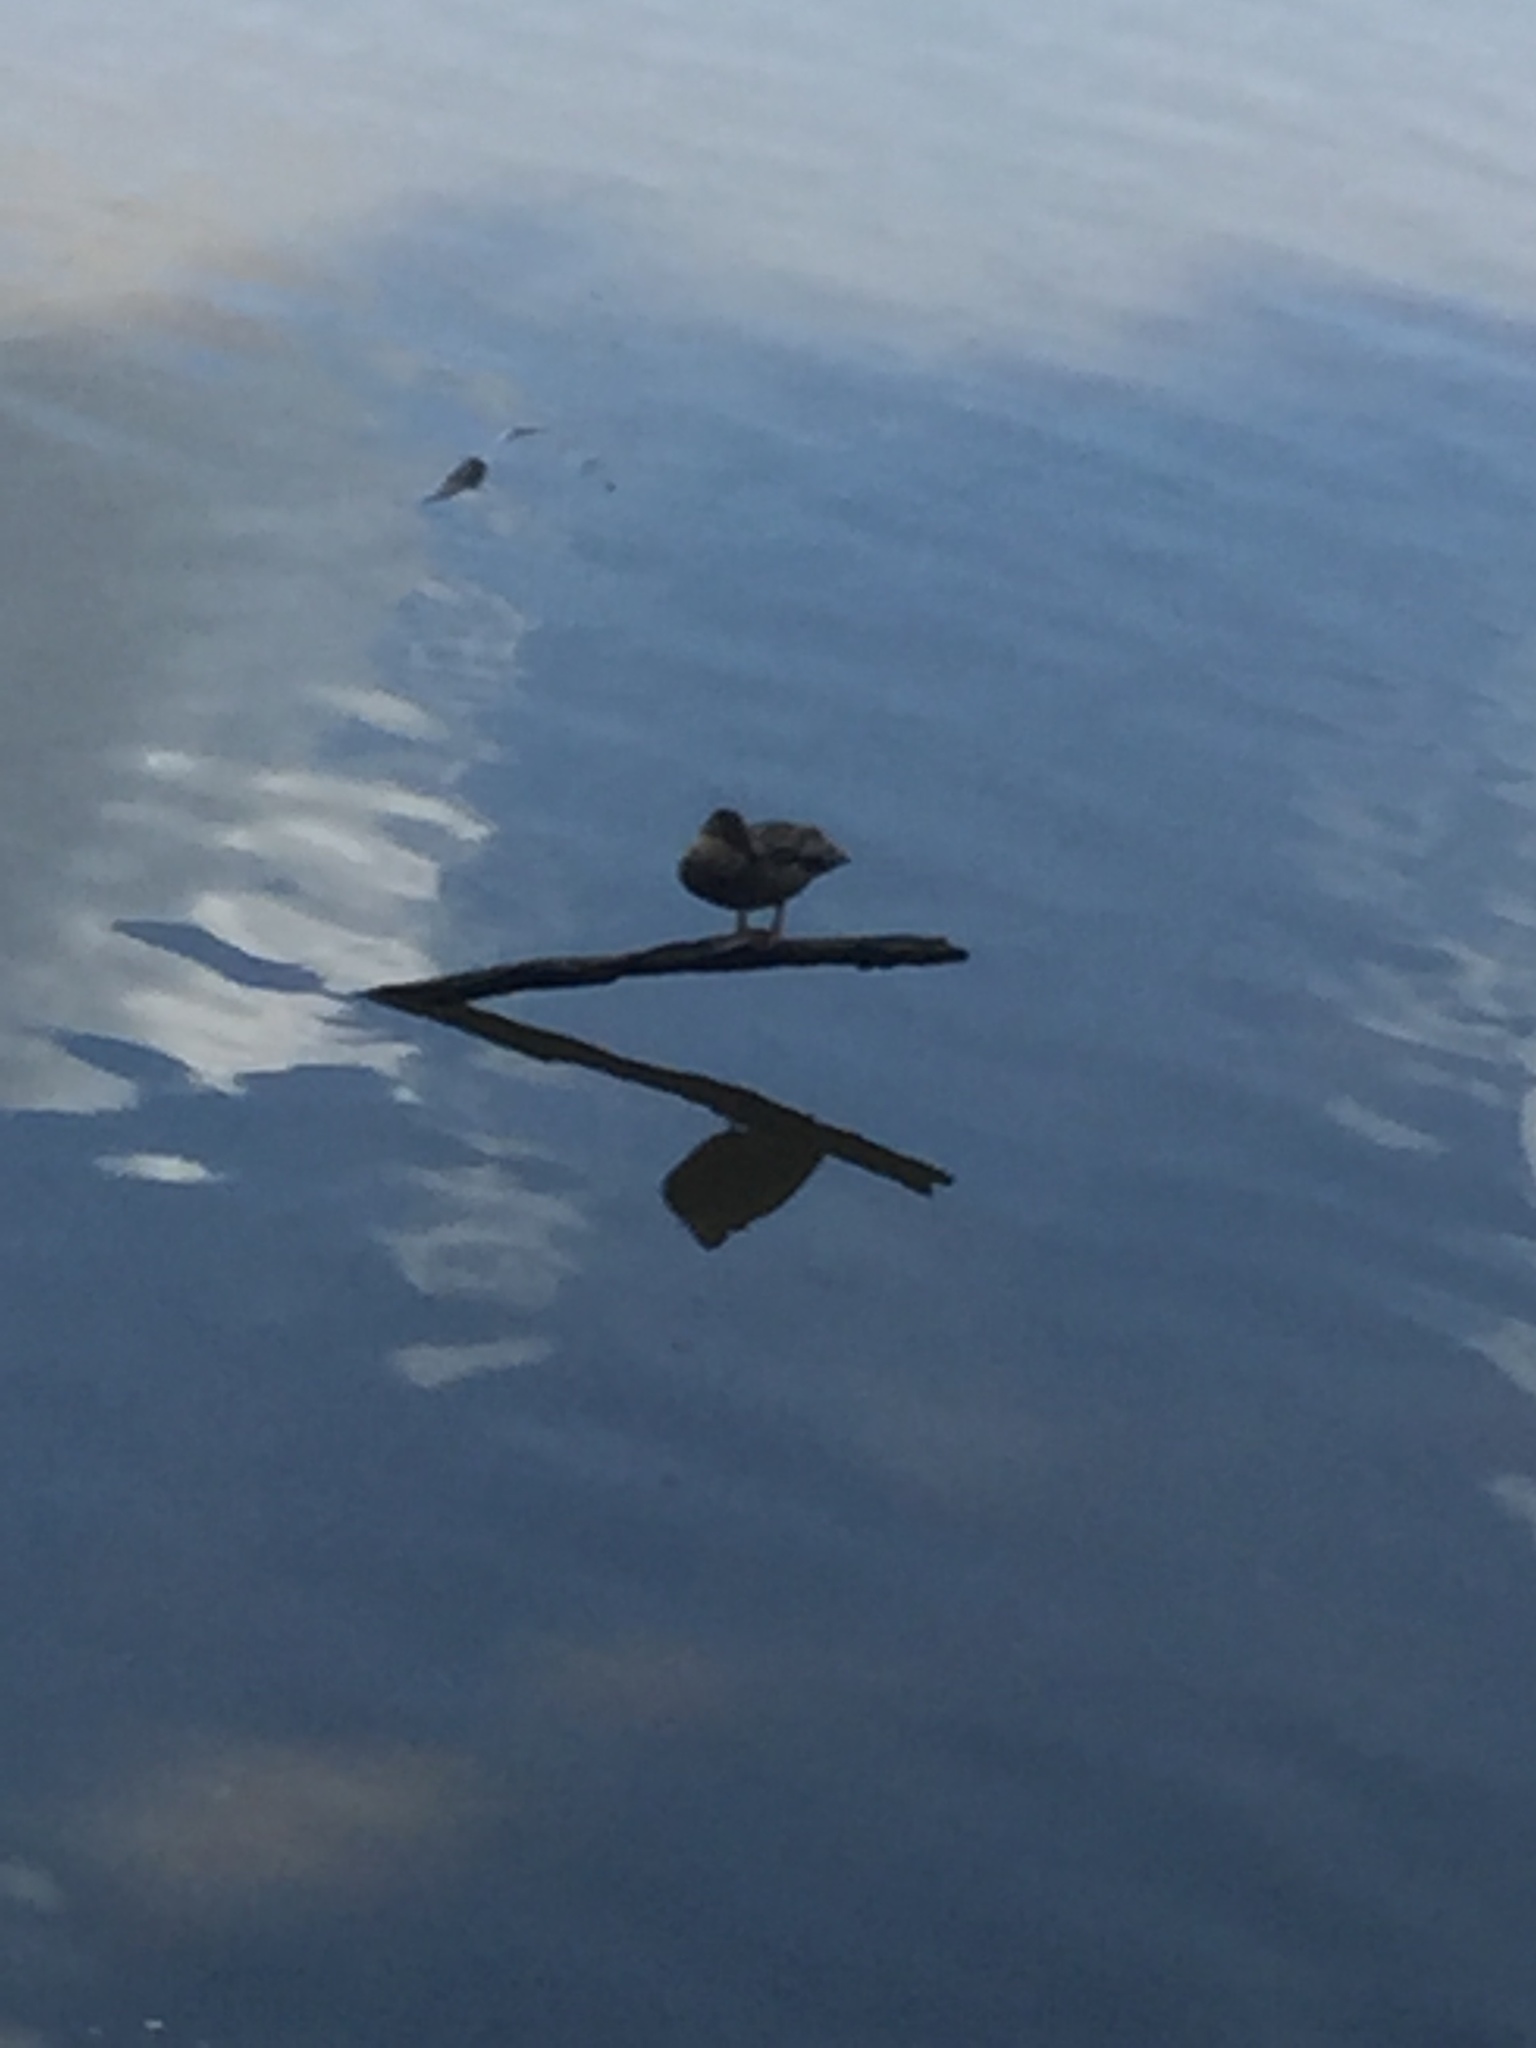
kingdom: Animalia
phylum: Chordata
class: Aves
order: Anseriformes
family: Anatidae
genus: Anas
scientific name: Anas platyrhynchos
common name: Mallard
